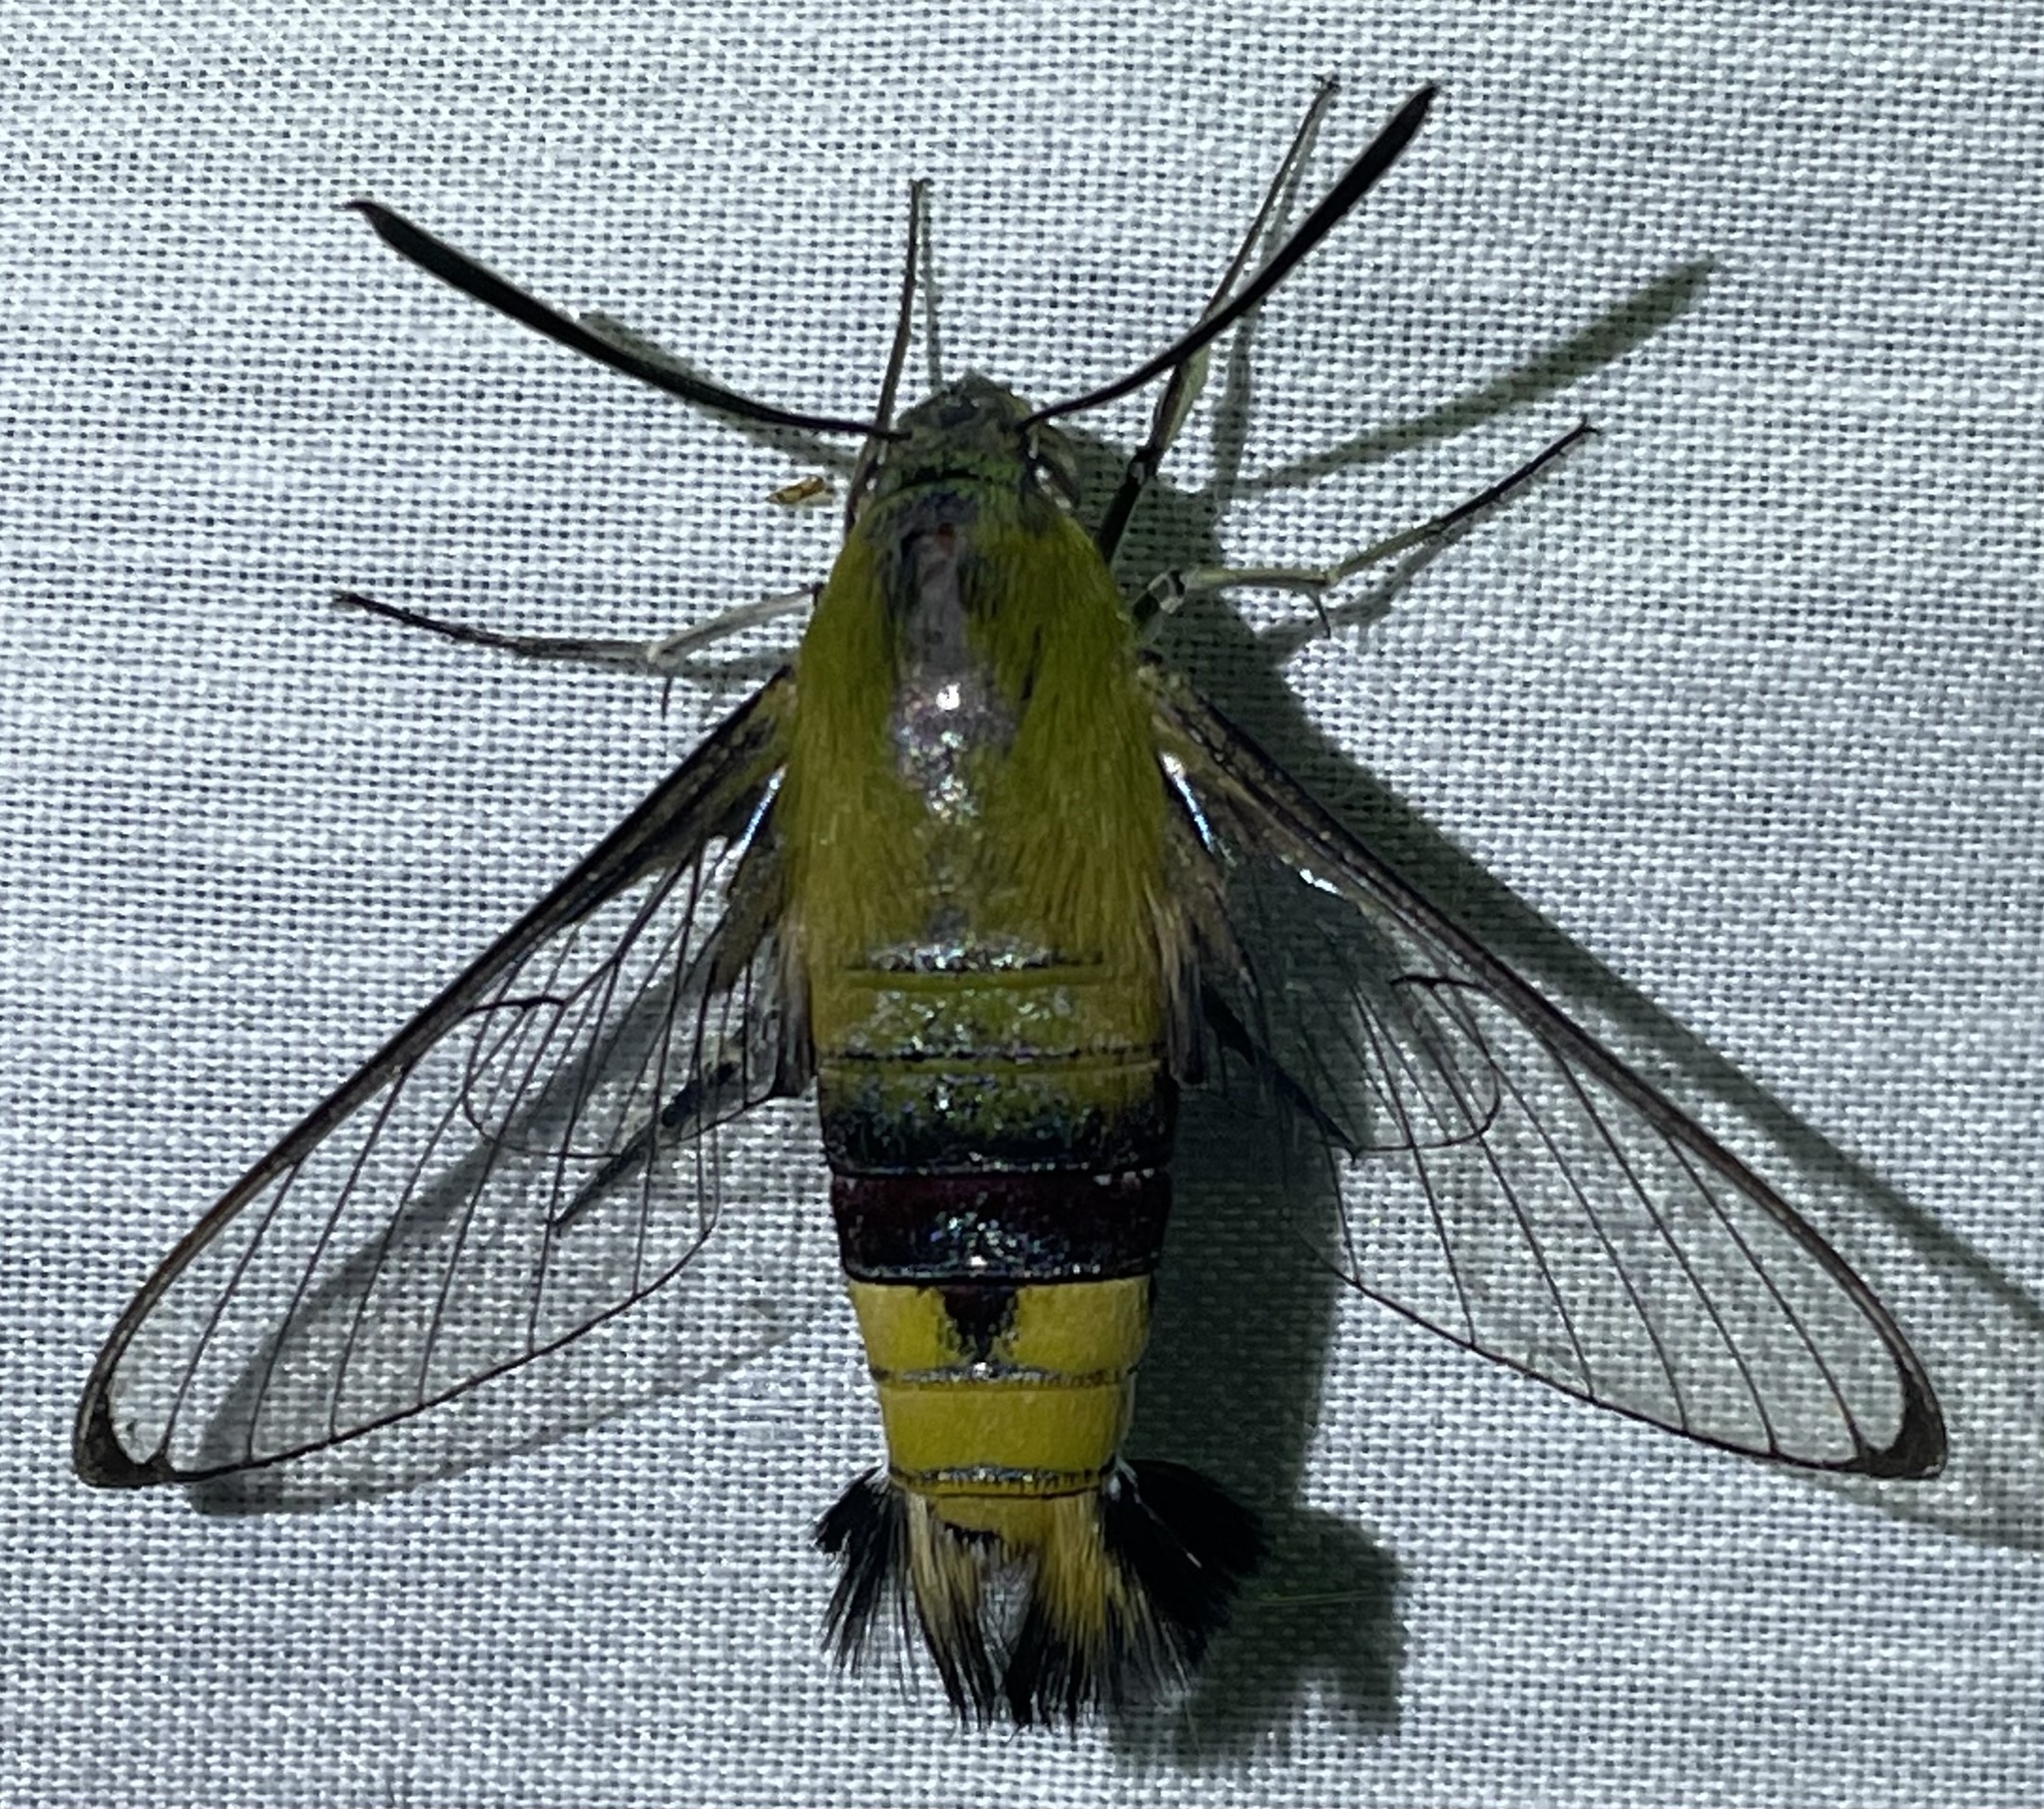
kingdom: Animalia
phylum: Arthropoda
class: Insecta
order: Lepidoptera
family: Sphingidae
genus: Cephonodes
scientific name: Cephonodes hylas
